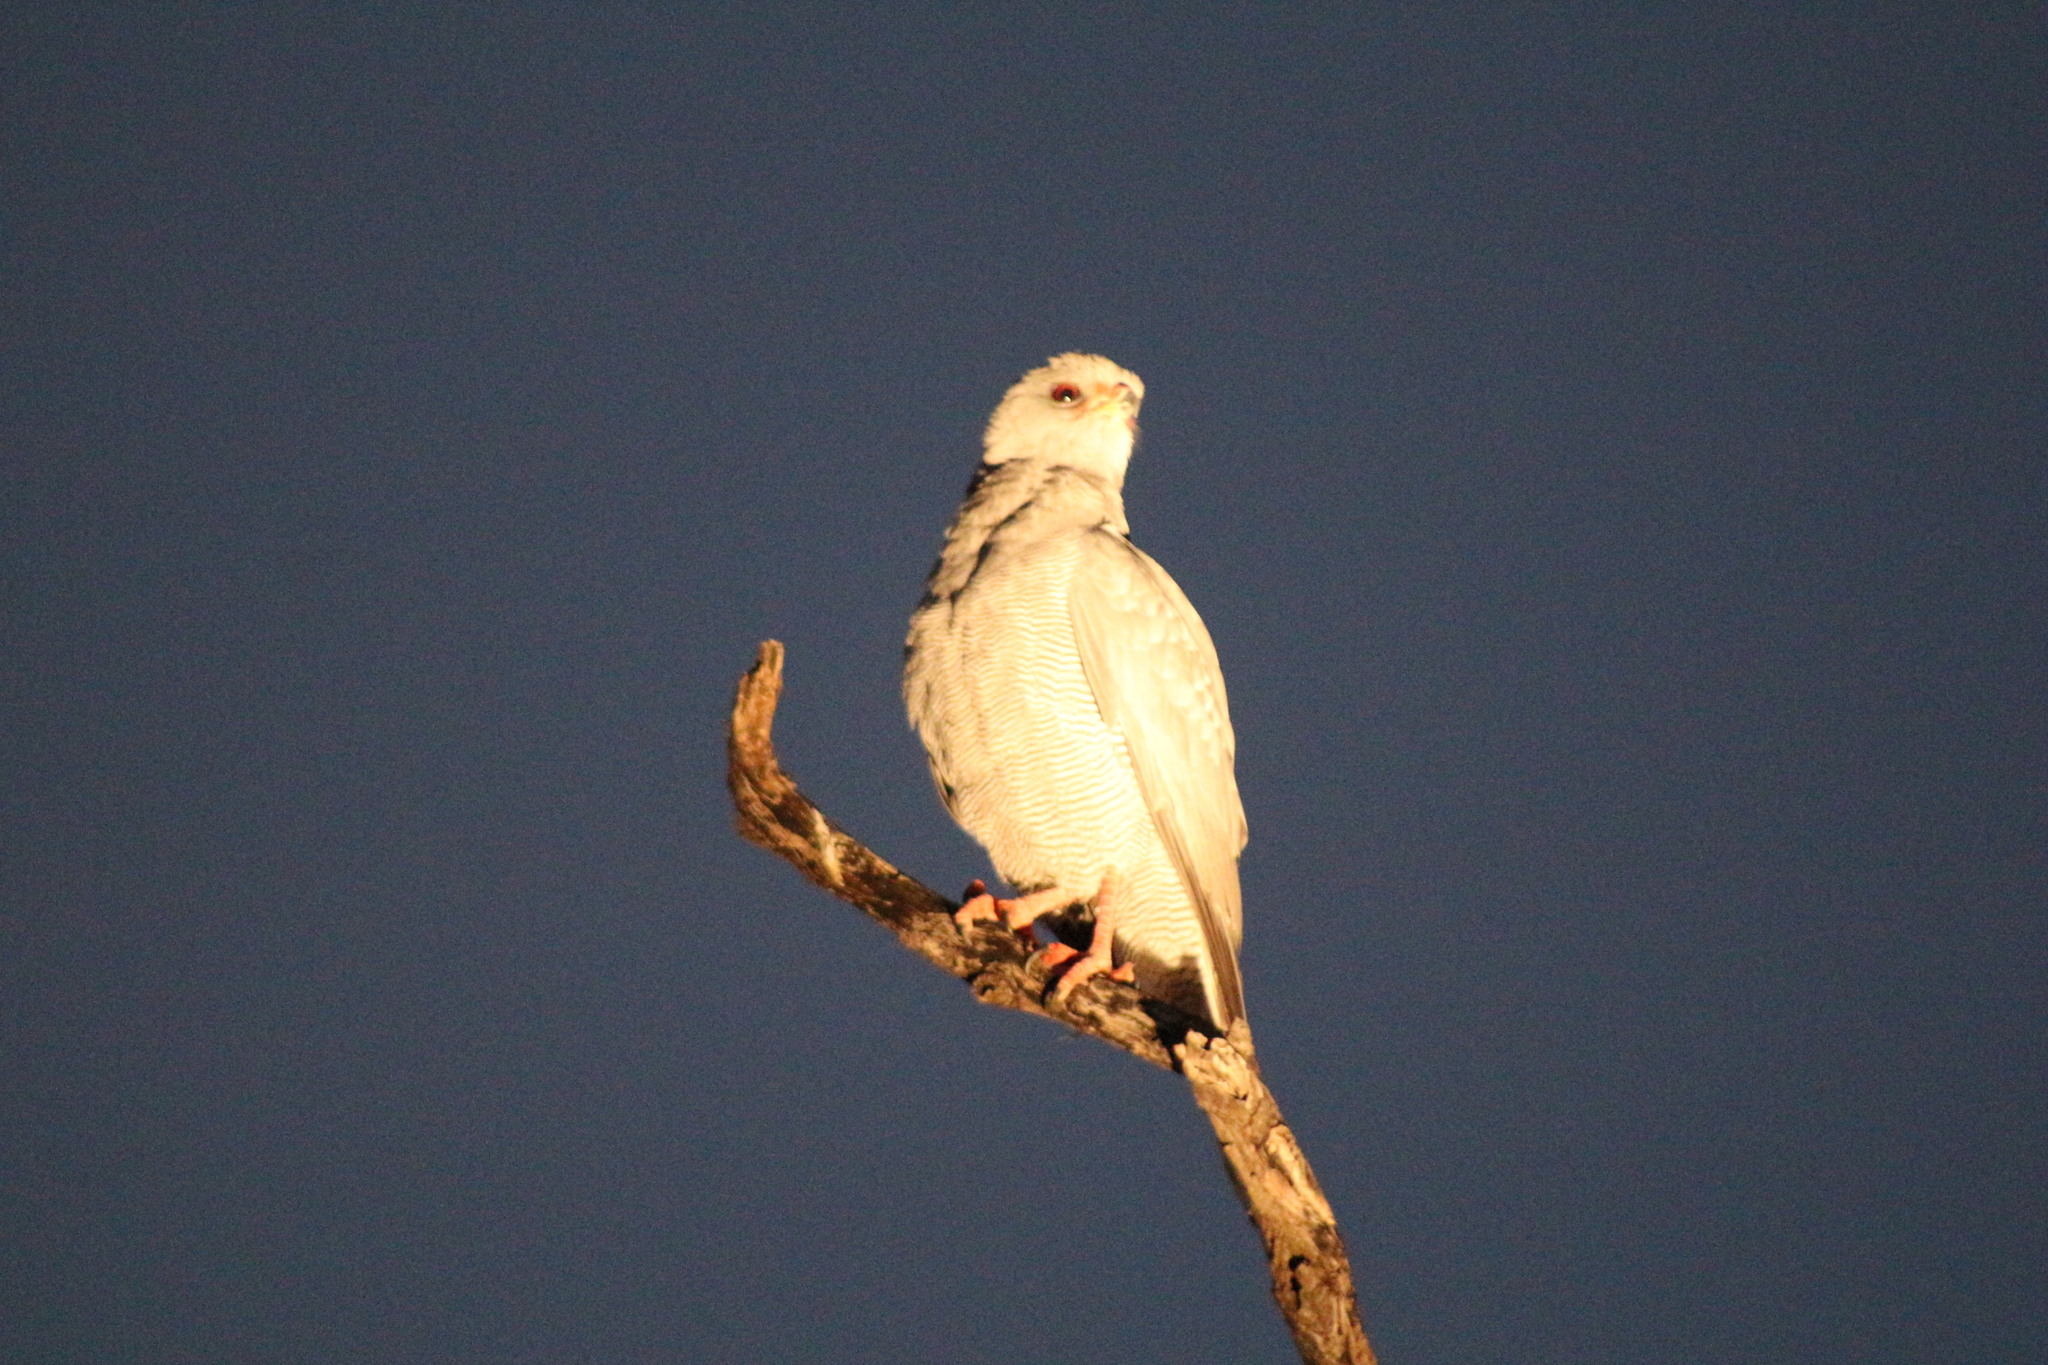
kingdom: Animalia
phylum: Chordata
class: Aves
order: Accipitriformes
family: Accipitridae
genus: Melierax
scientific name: Melierax metabates
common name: Dark chanting-goshawk
